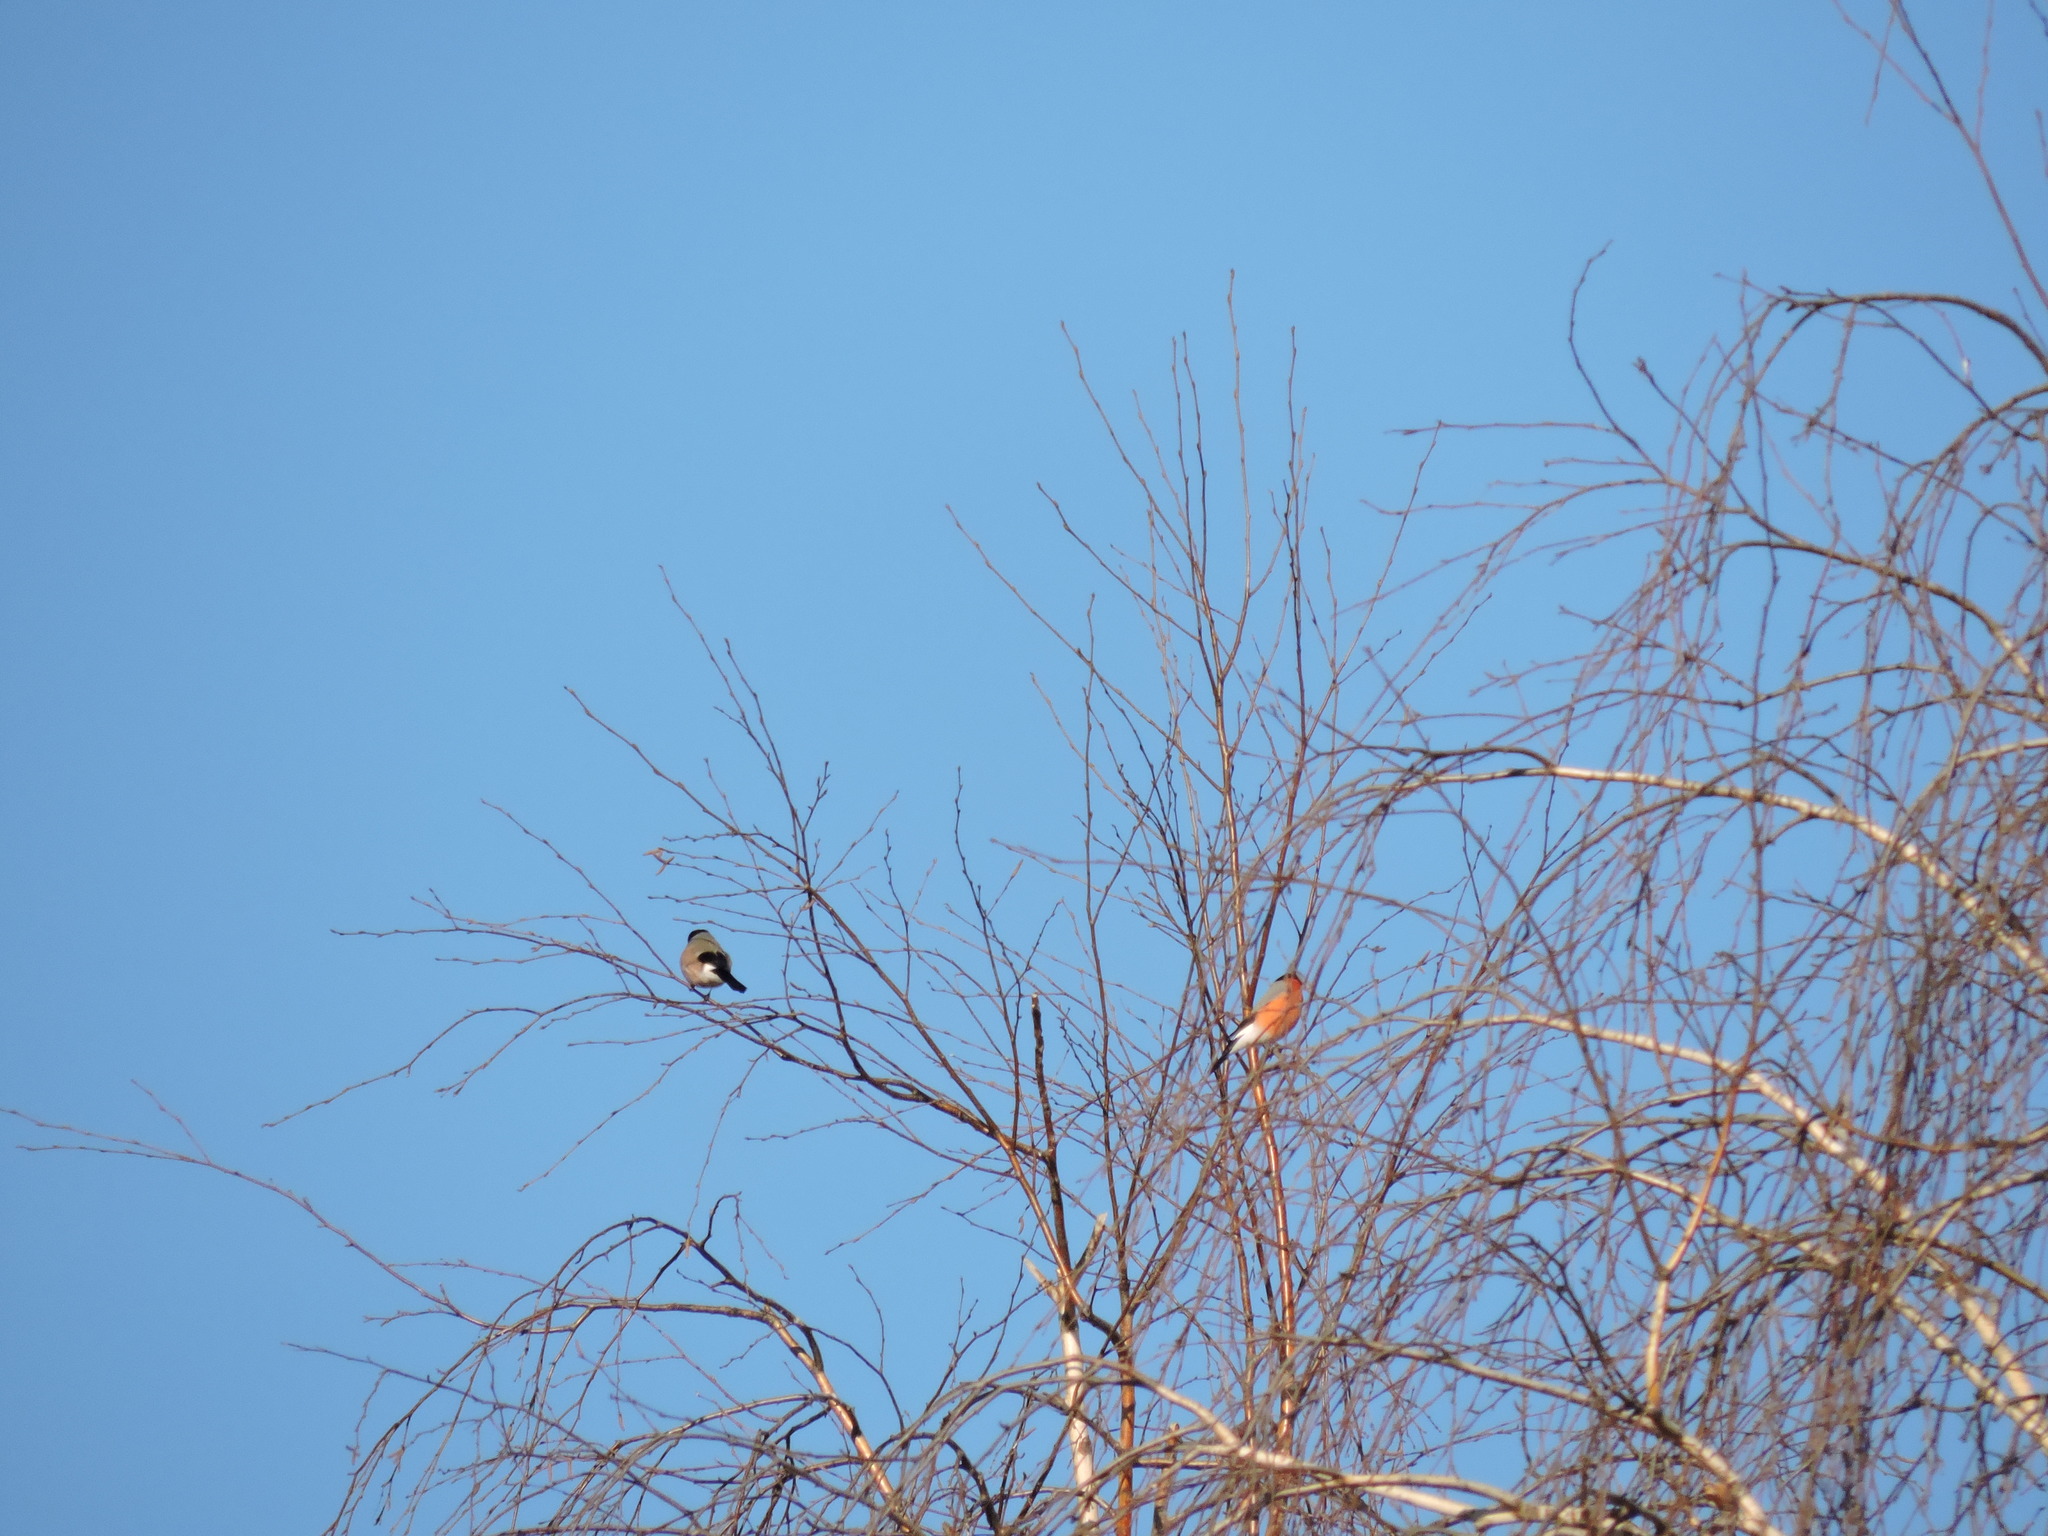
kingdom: Animalia
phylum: Chordata
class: Aves
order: Passeriformes
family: Fringillidae
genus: Pyrrhula
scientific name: Pyrrhula pyrrhula
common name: Eurasian bullfinch
